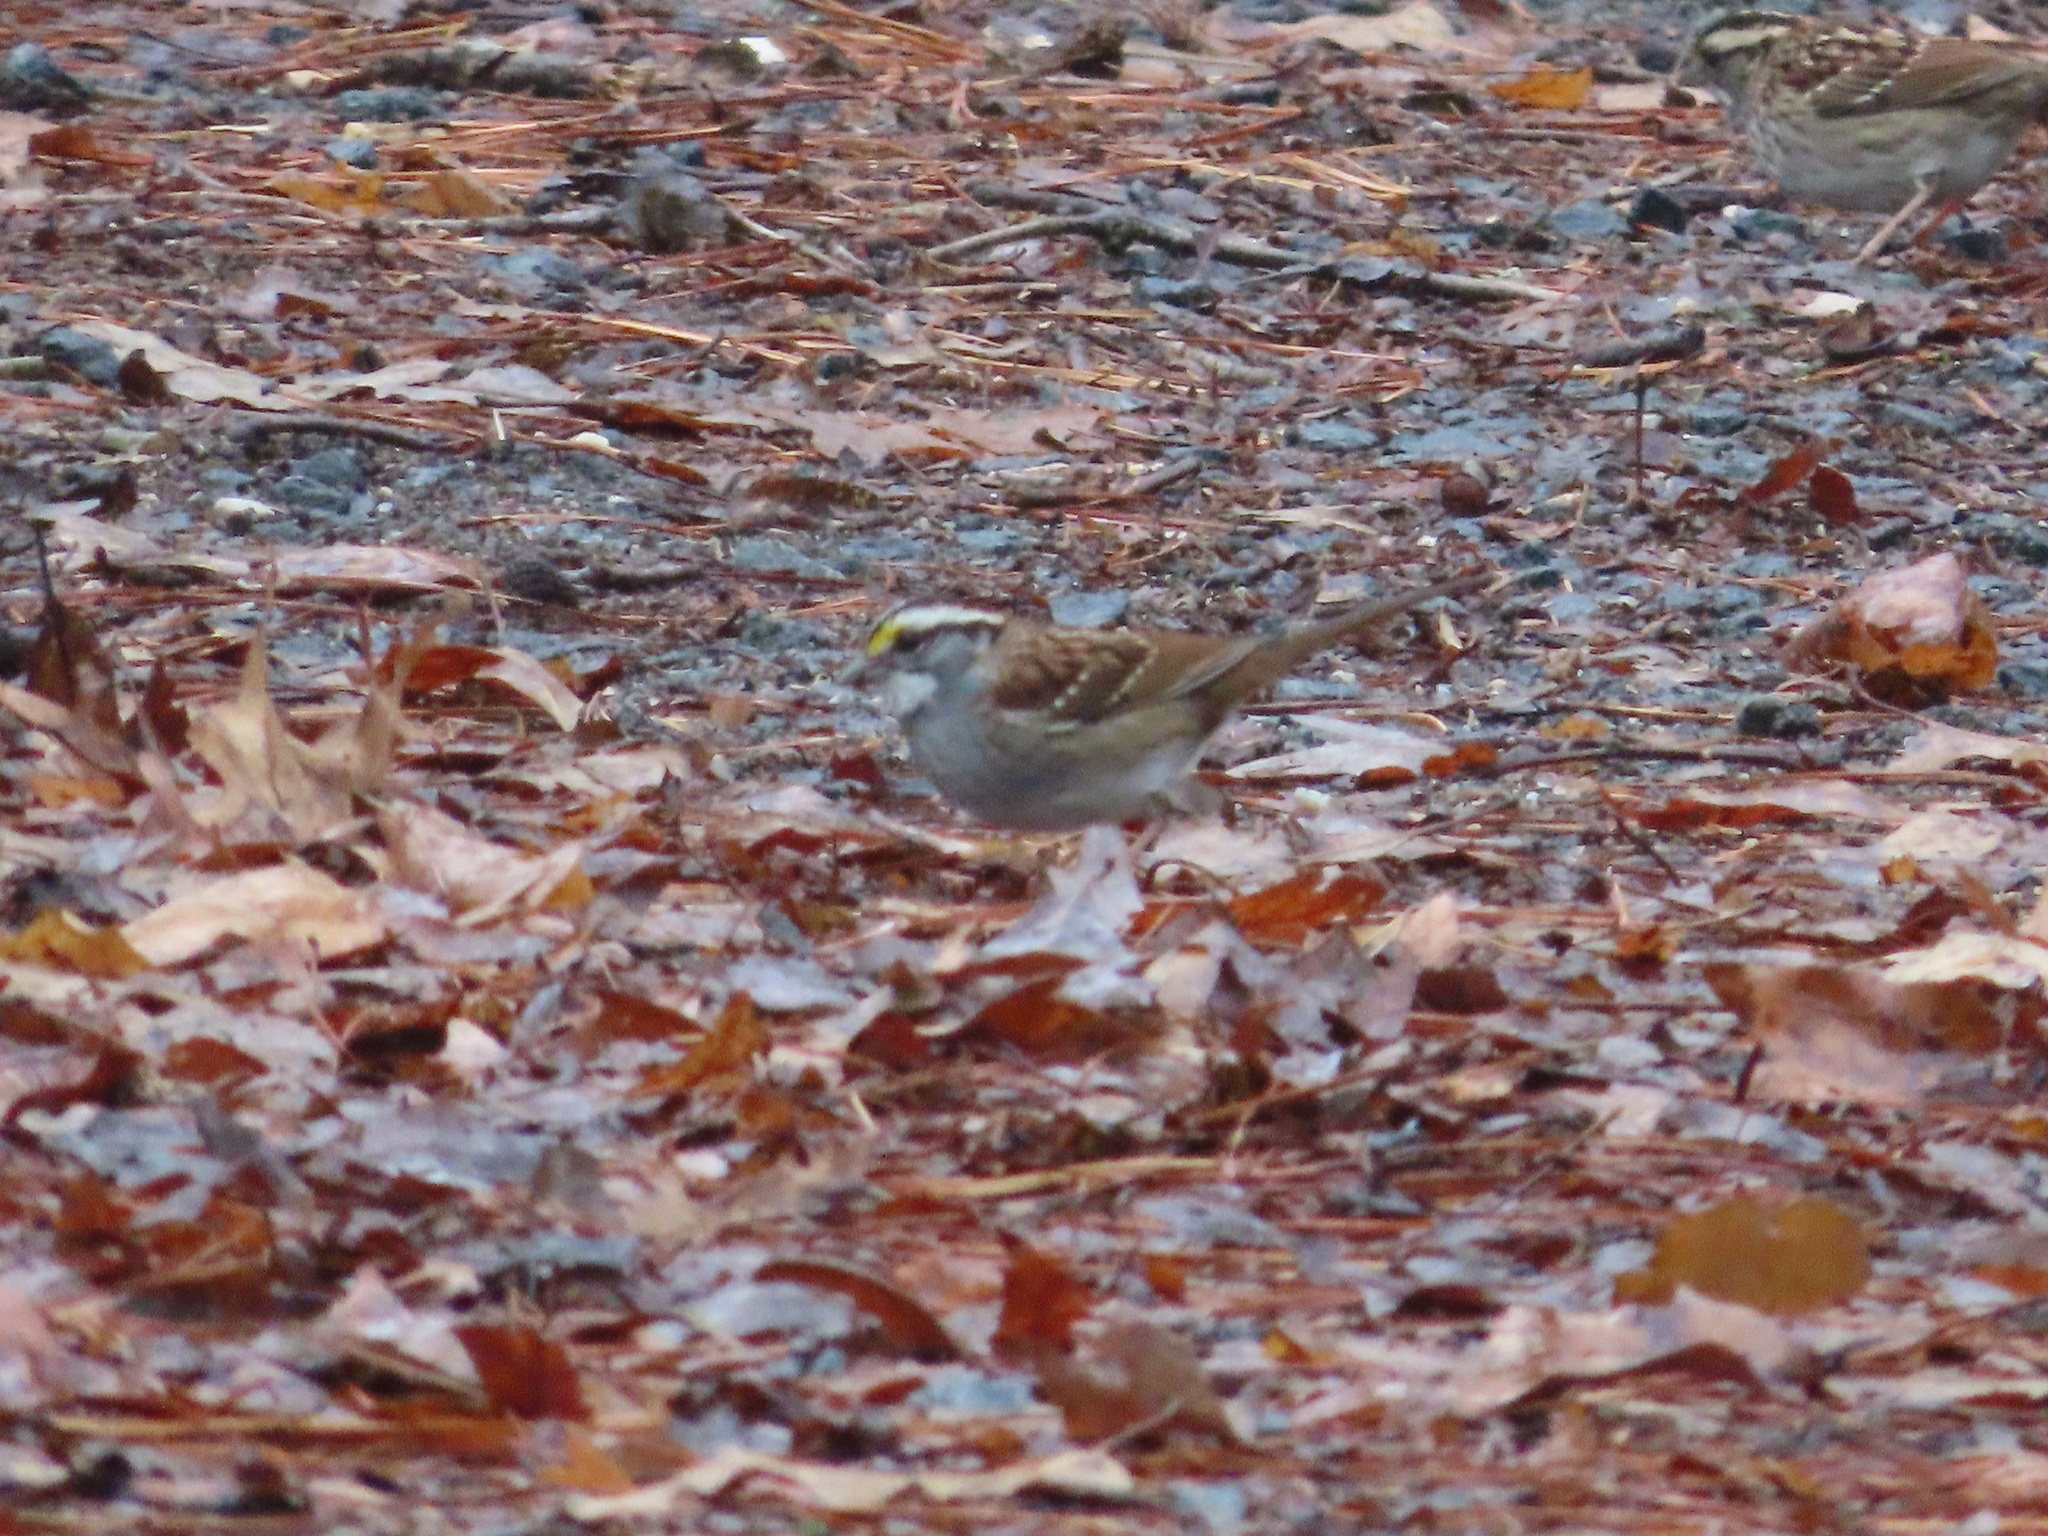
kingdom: Animalia
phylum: Chordata
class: Aves
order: Passeriformes
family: Passerellidae
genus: Zonotrichia
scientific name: Zonotrichia albicollis
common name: White-throated sparrow
